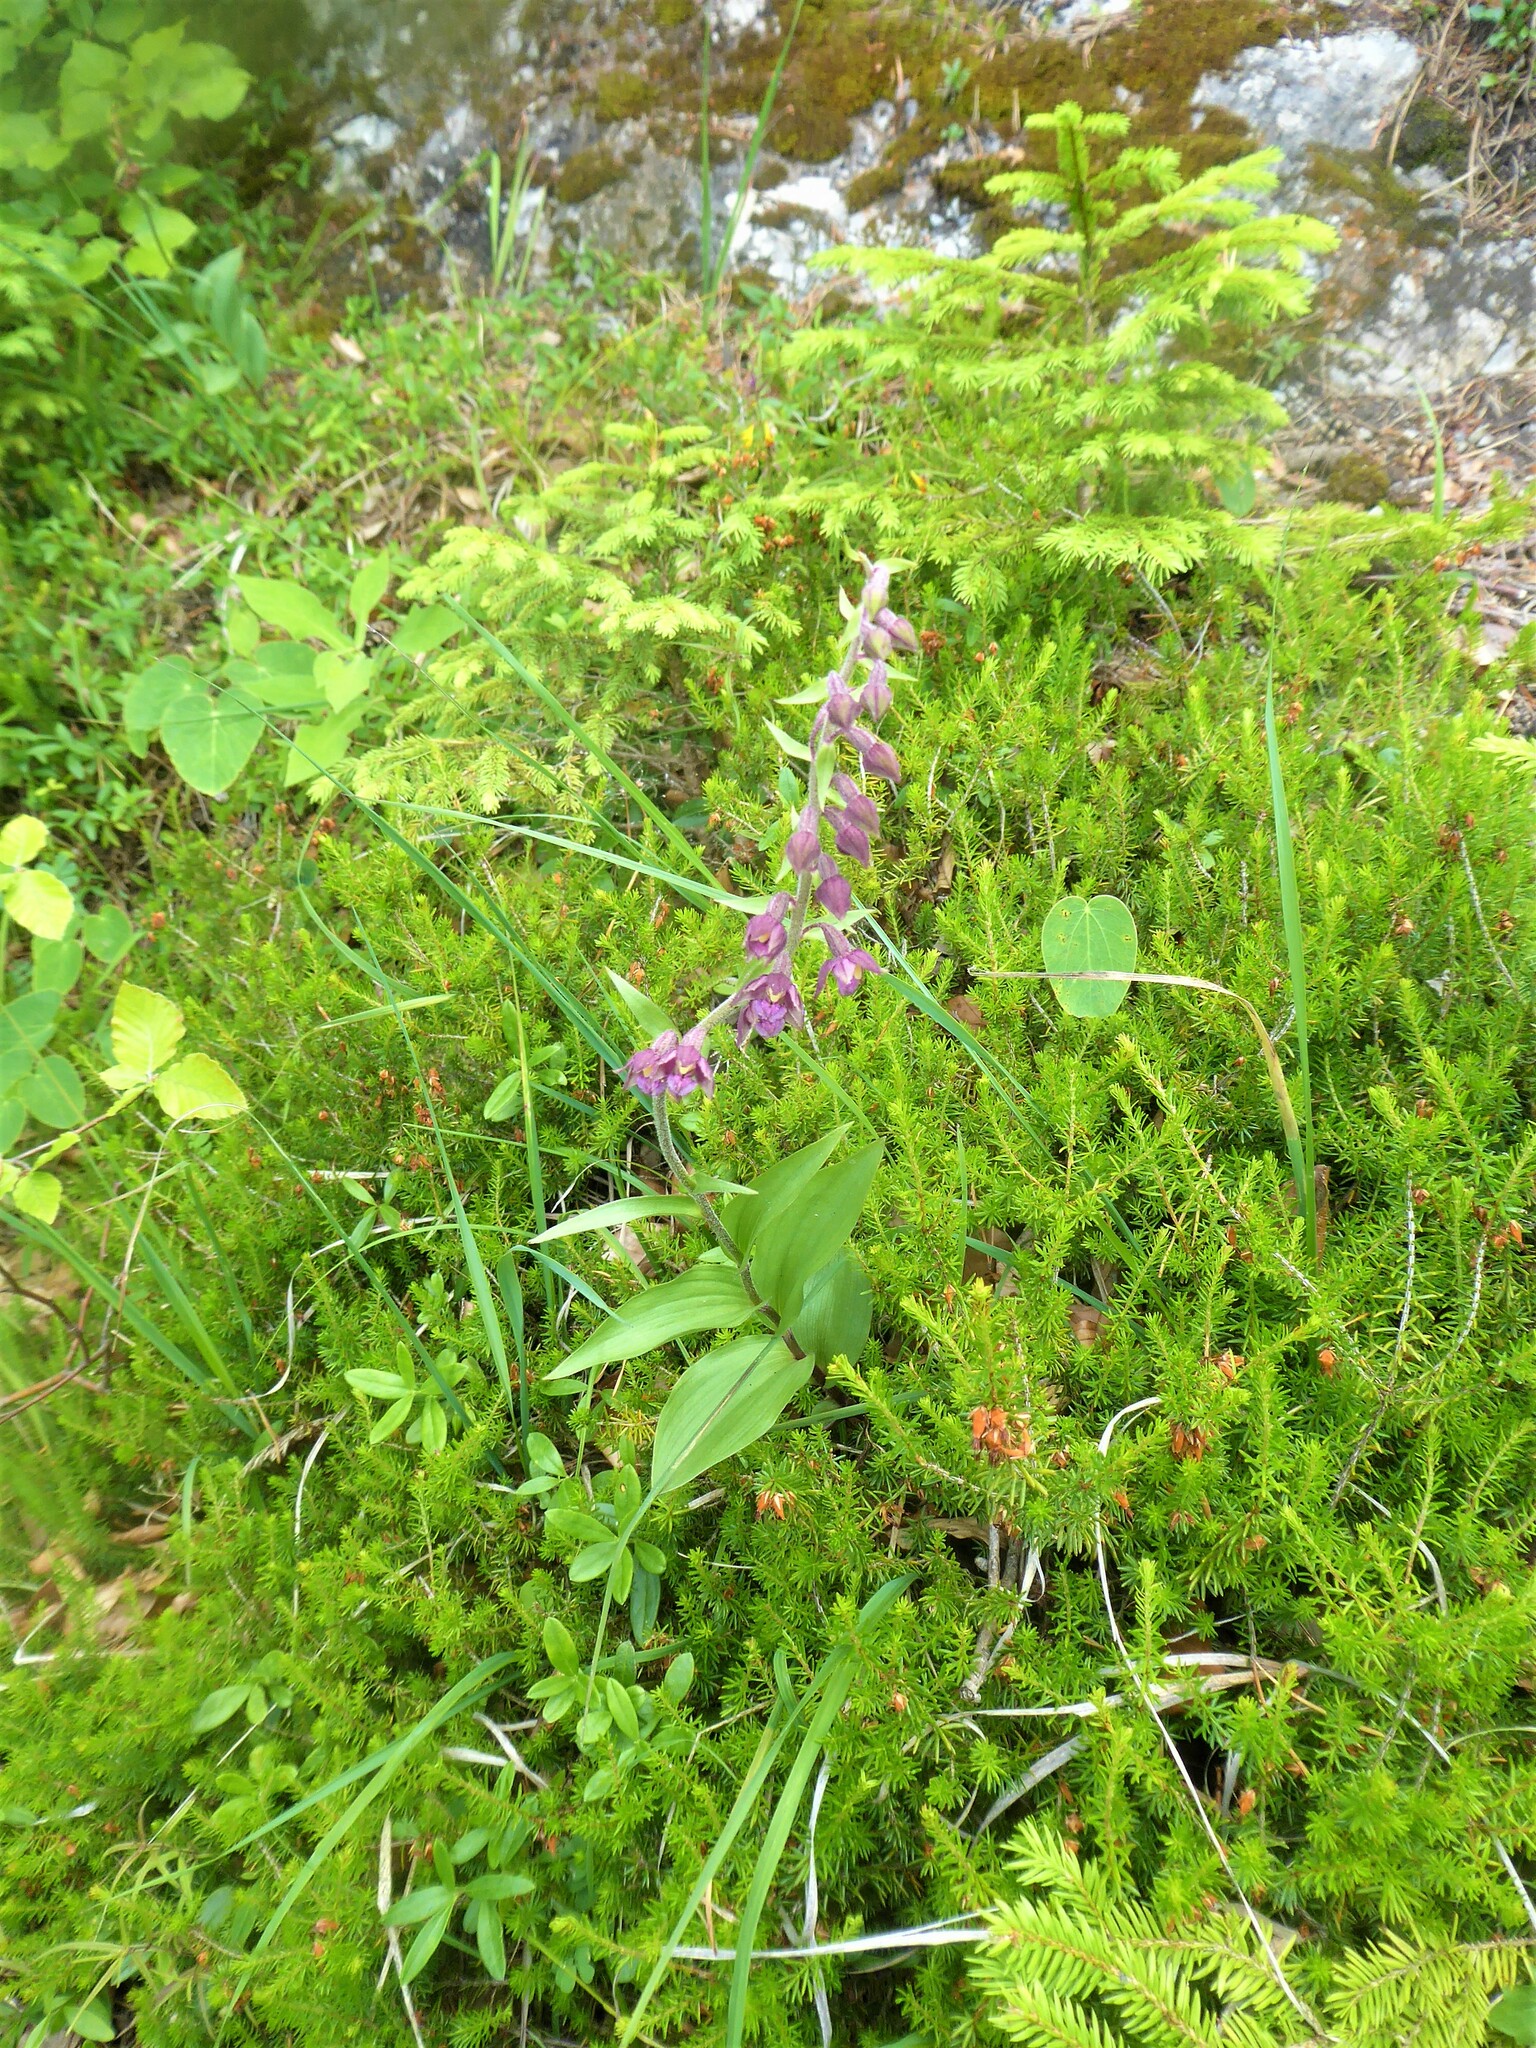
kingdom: Plantae
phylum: Tracheophyta
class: Liliopsida
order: Asparagales
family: Orchidaceae
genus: Epipactis
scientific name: Epipactis atrorubens
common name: Dark-red helleborine
